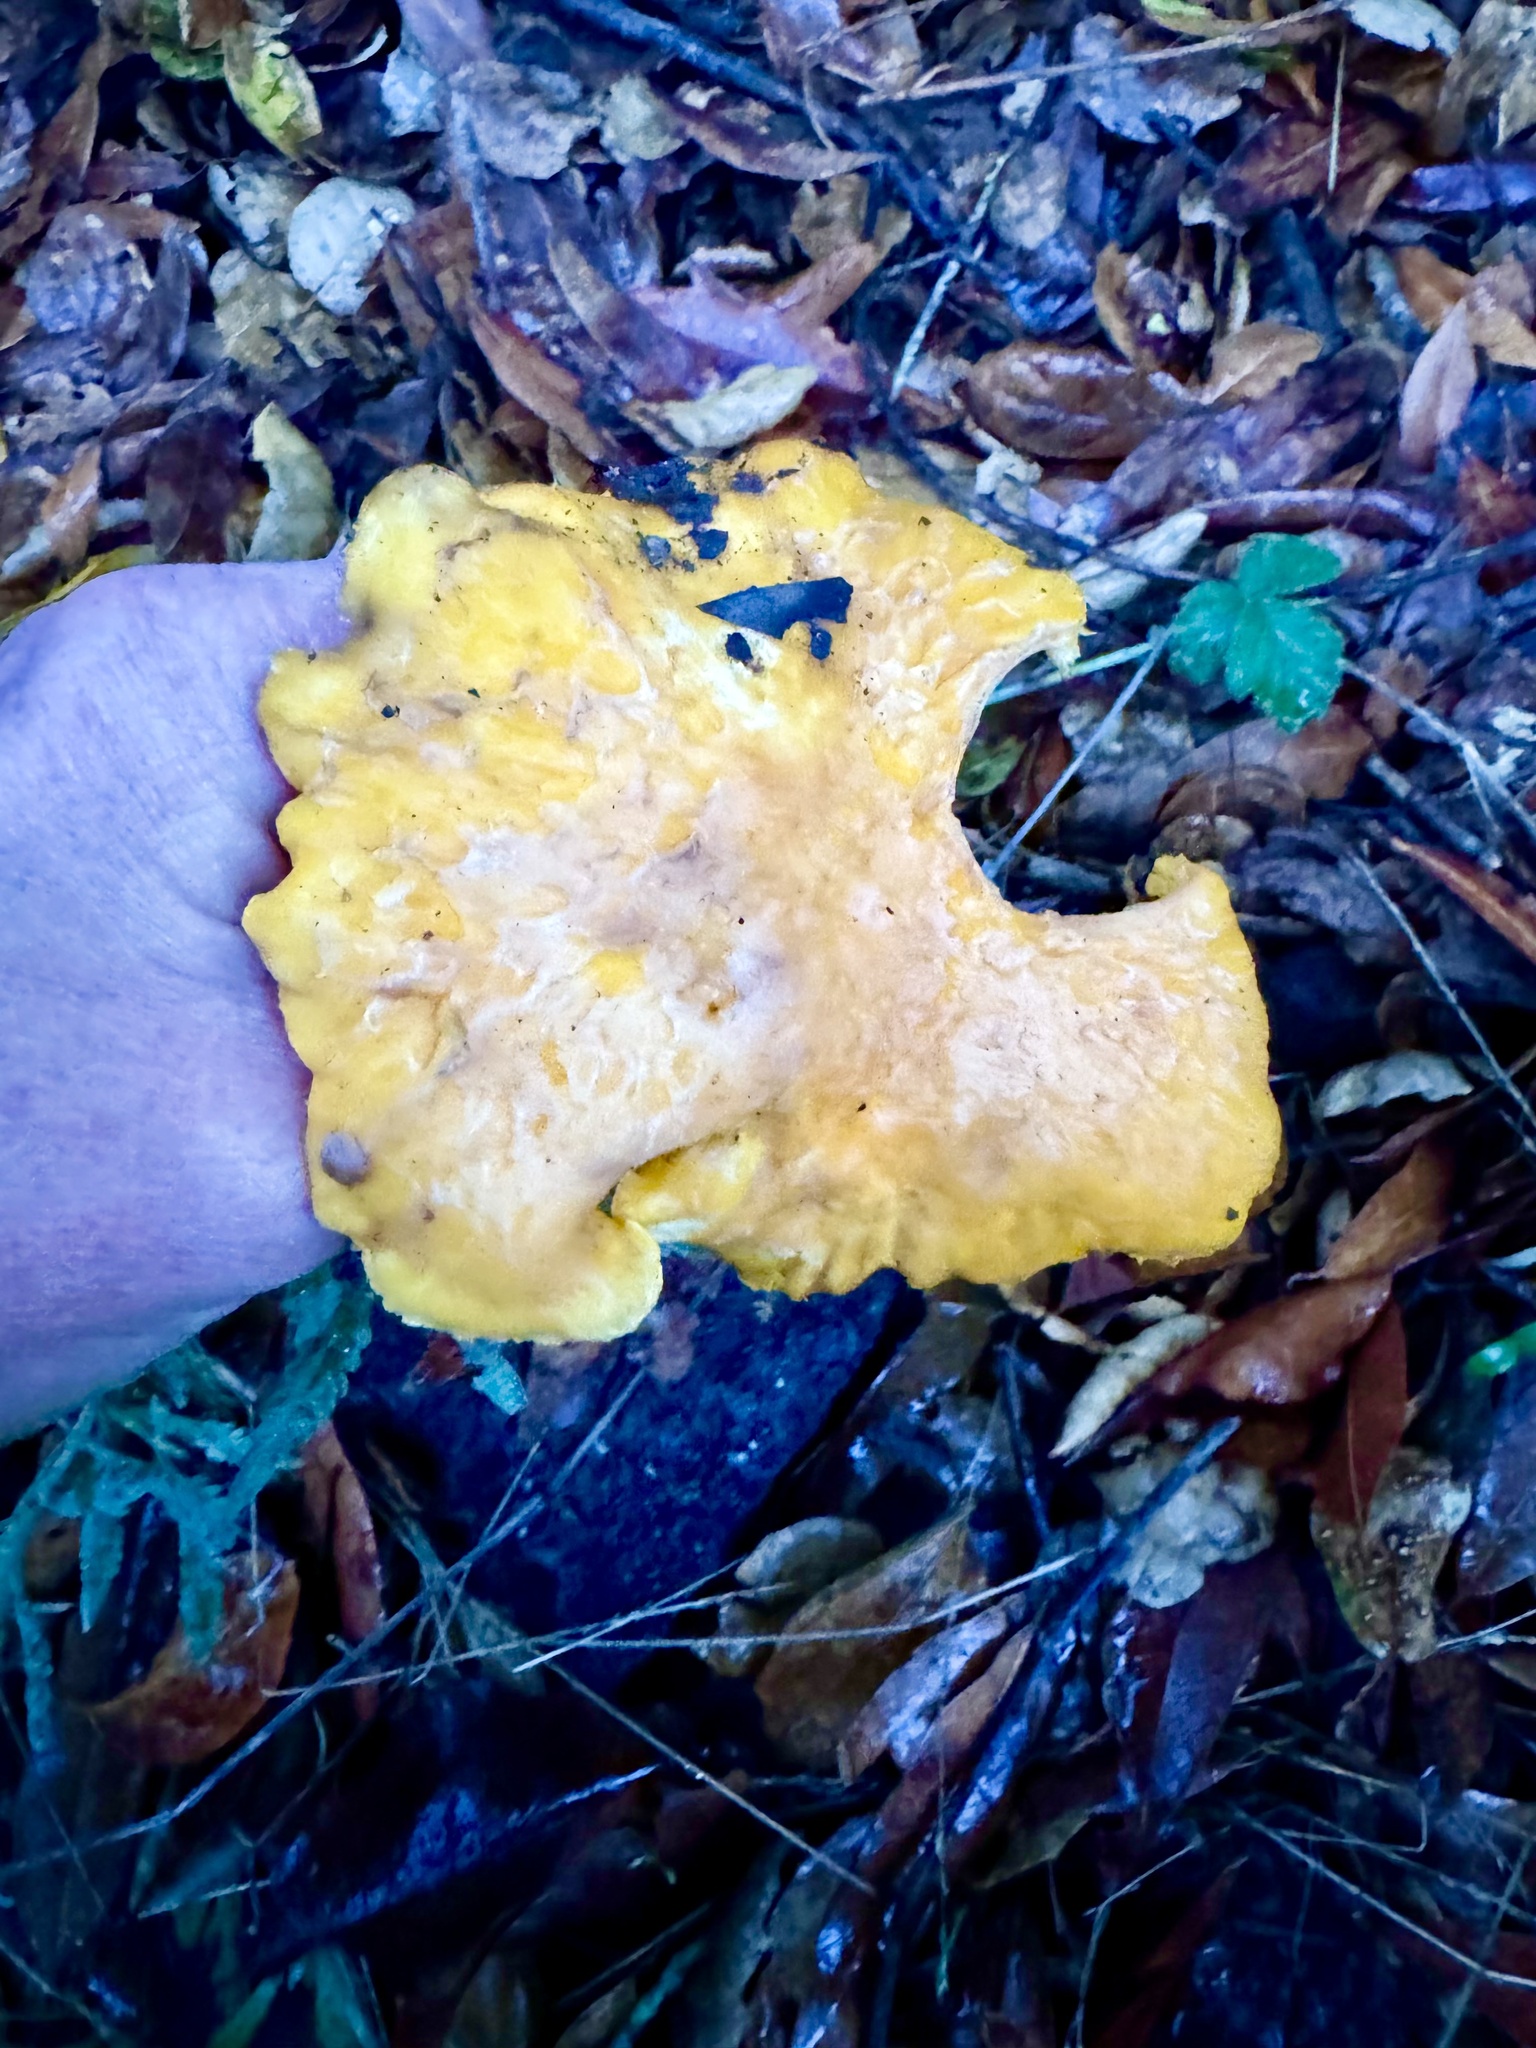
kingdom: Fungi
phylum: Basidiomycota
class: Agaricomycetes
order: Cantharellales
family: Hydnaceae
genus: Cantharellus
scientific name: Cantharellus californicus
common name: California golden chanterelle
